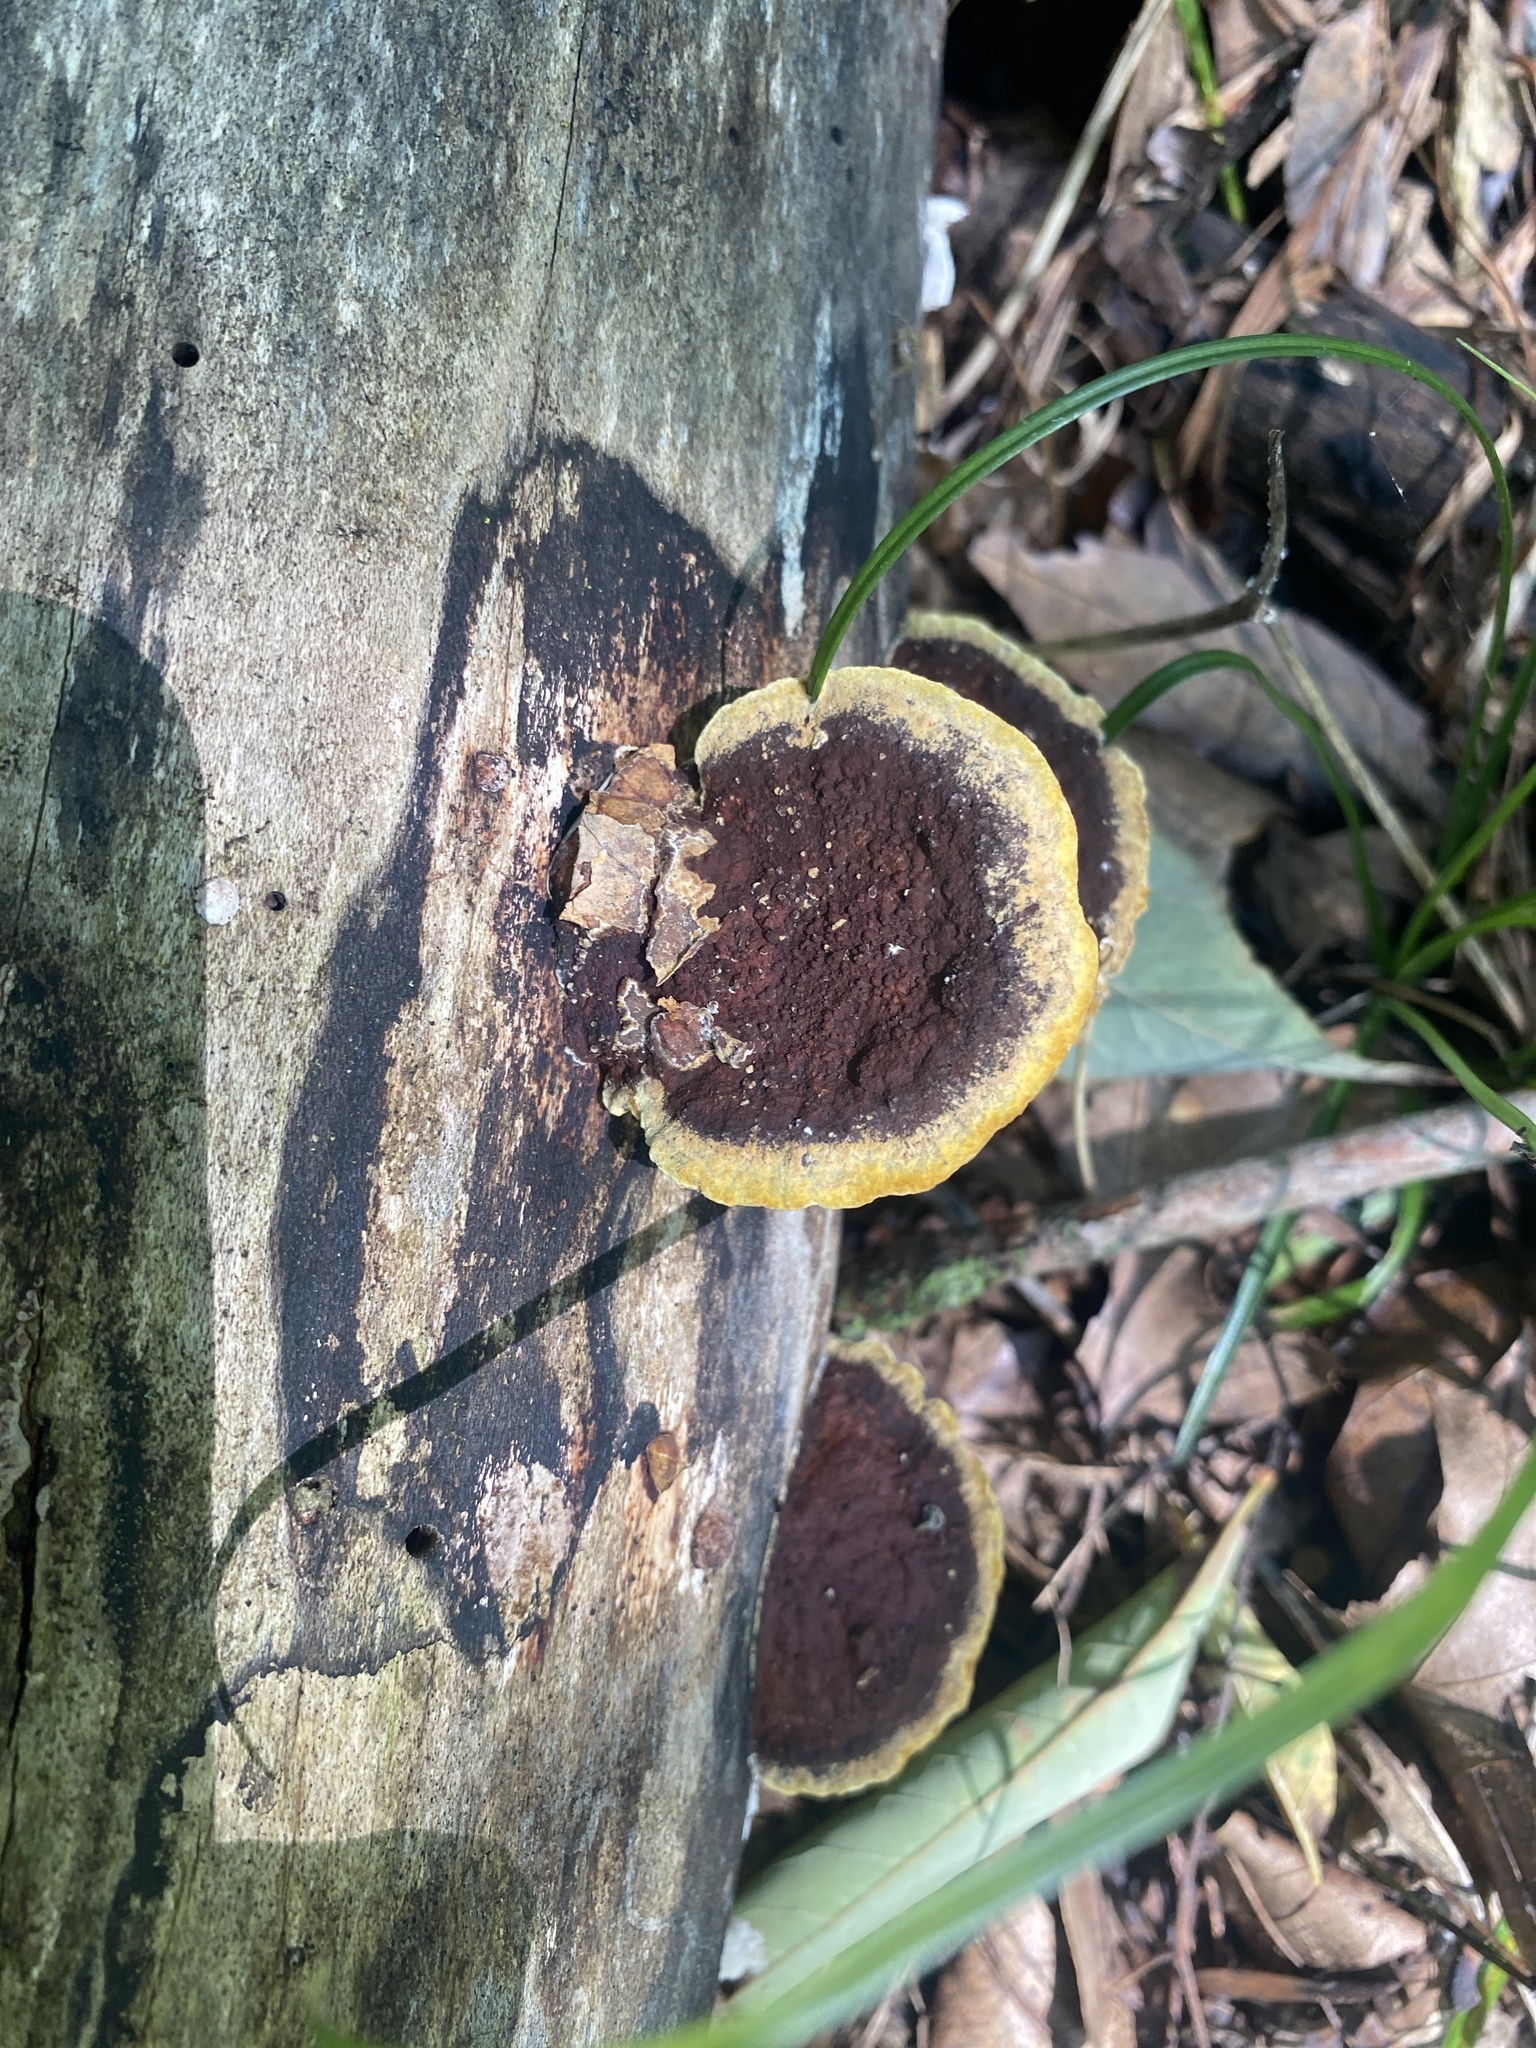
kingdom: Fungi
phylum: Basidiomycota
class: Agaricomycetes
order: Hymenochaetales
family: Hymenochaetaceae
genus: Phellinus
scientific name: Phellinus gilvus
